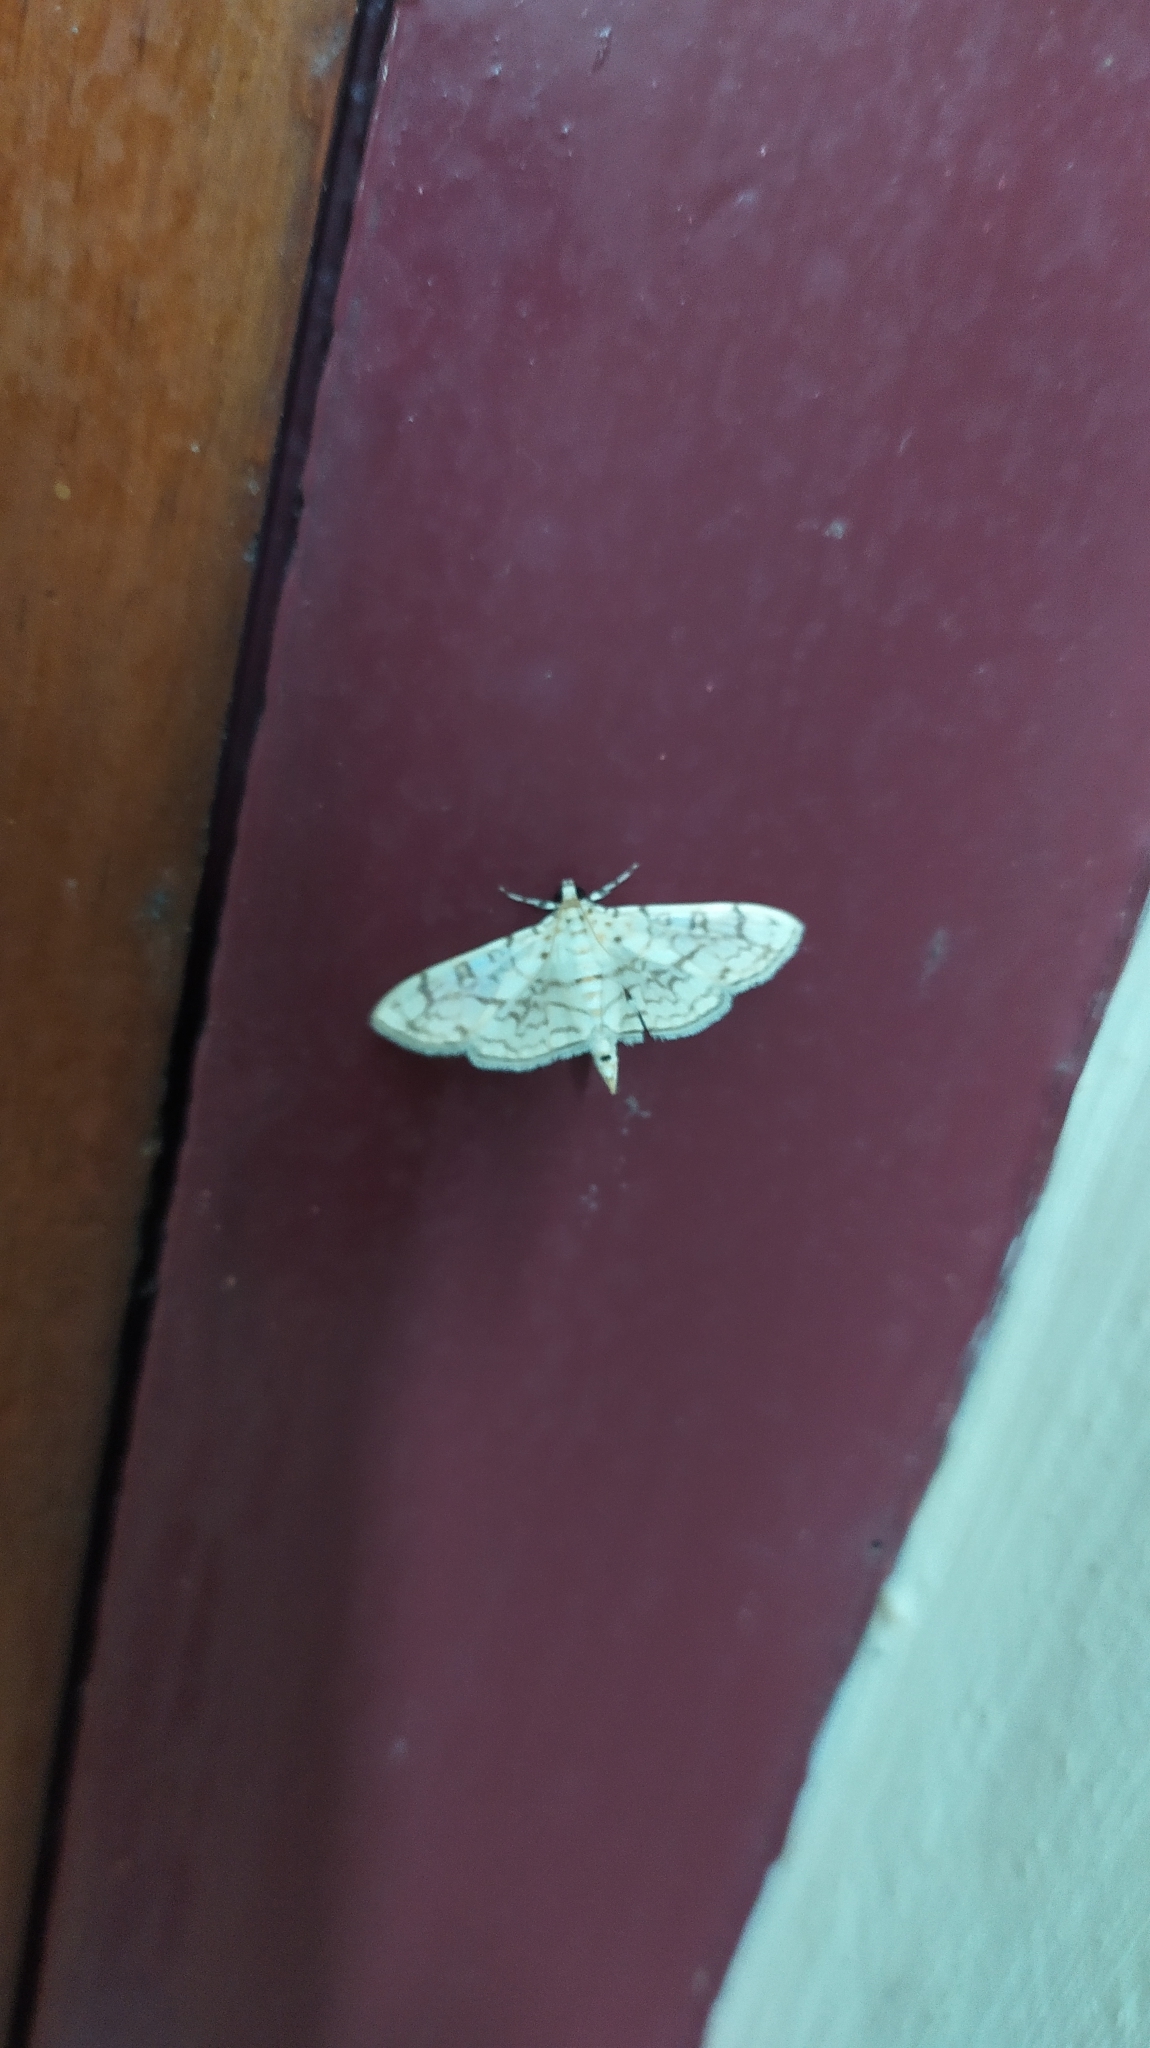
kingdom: Animalia
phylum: Arthropoda
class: Insecta
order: Lepidoptera
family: Crambidae
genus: Haritalodes
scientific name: Haritalodes derogata
